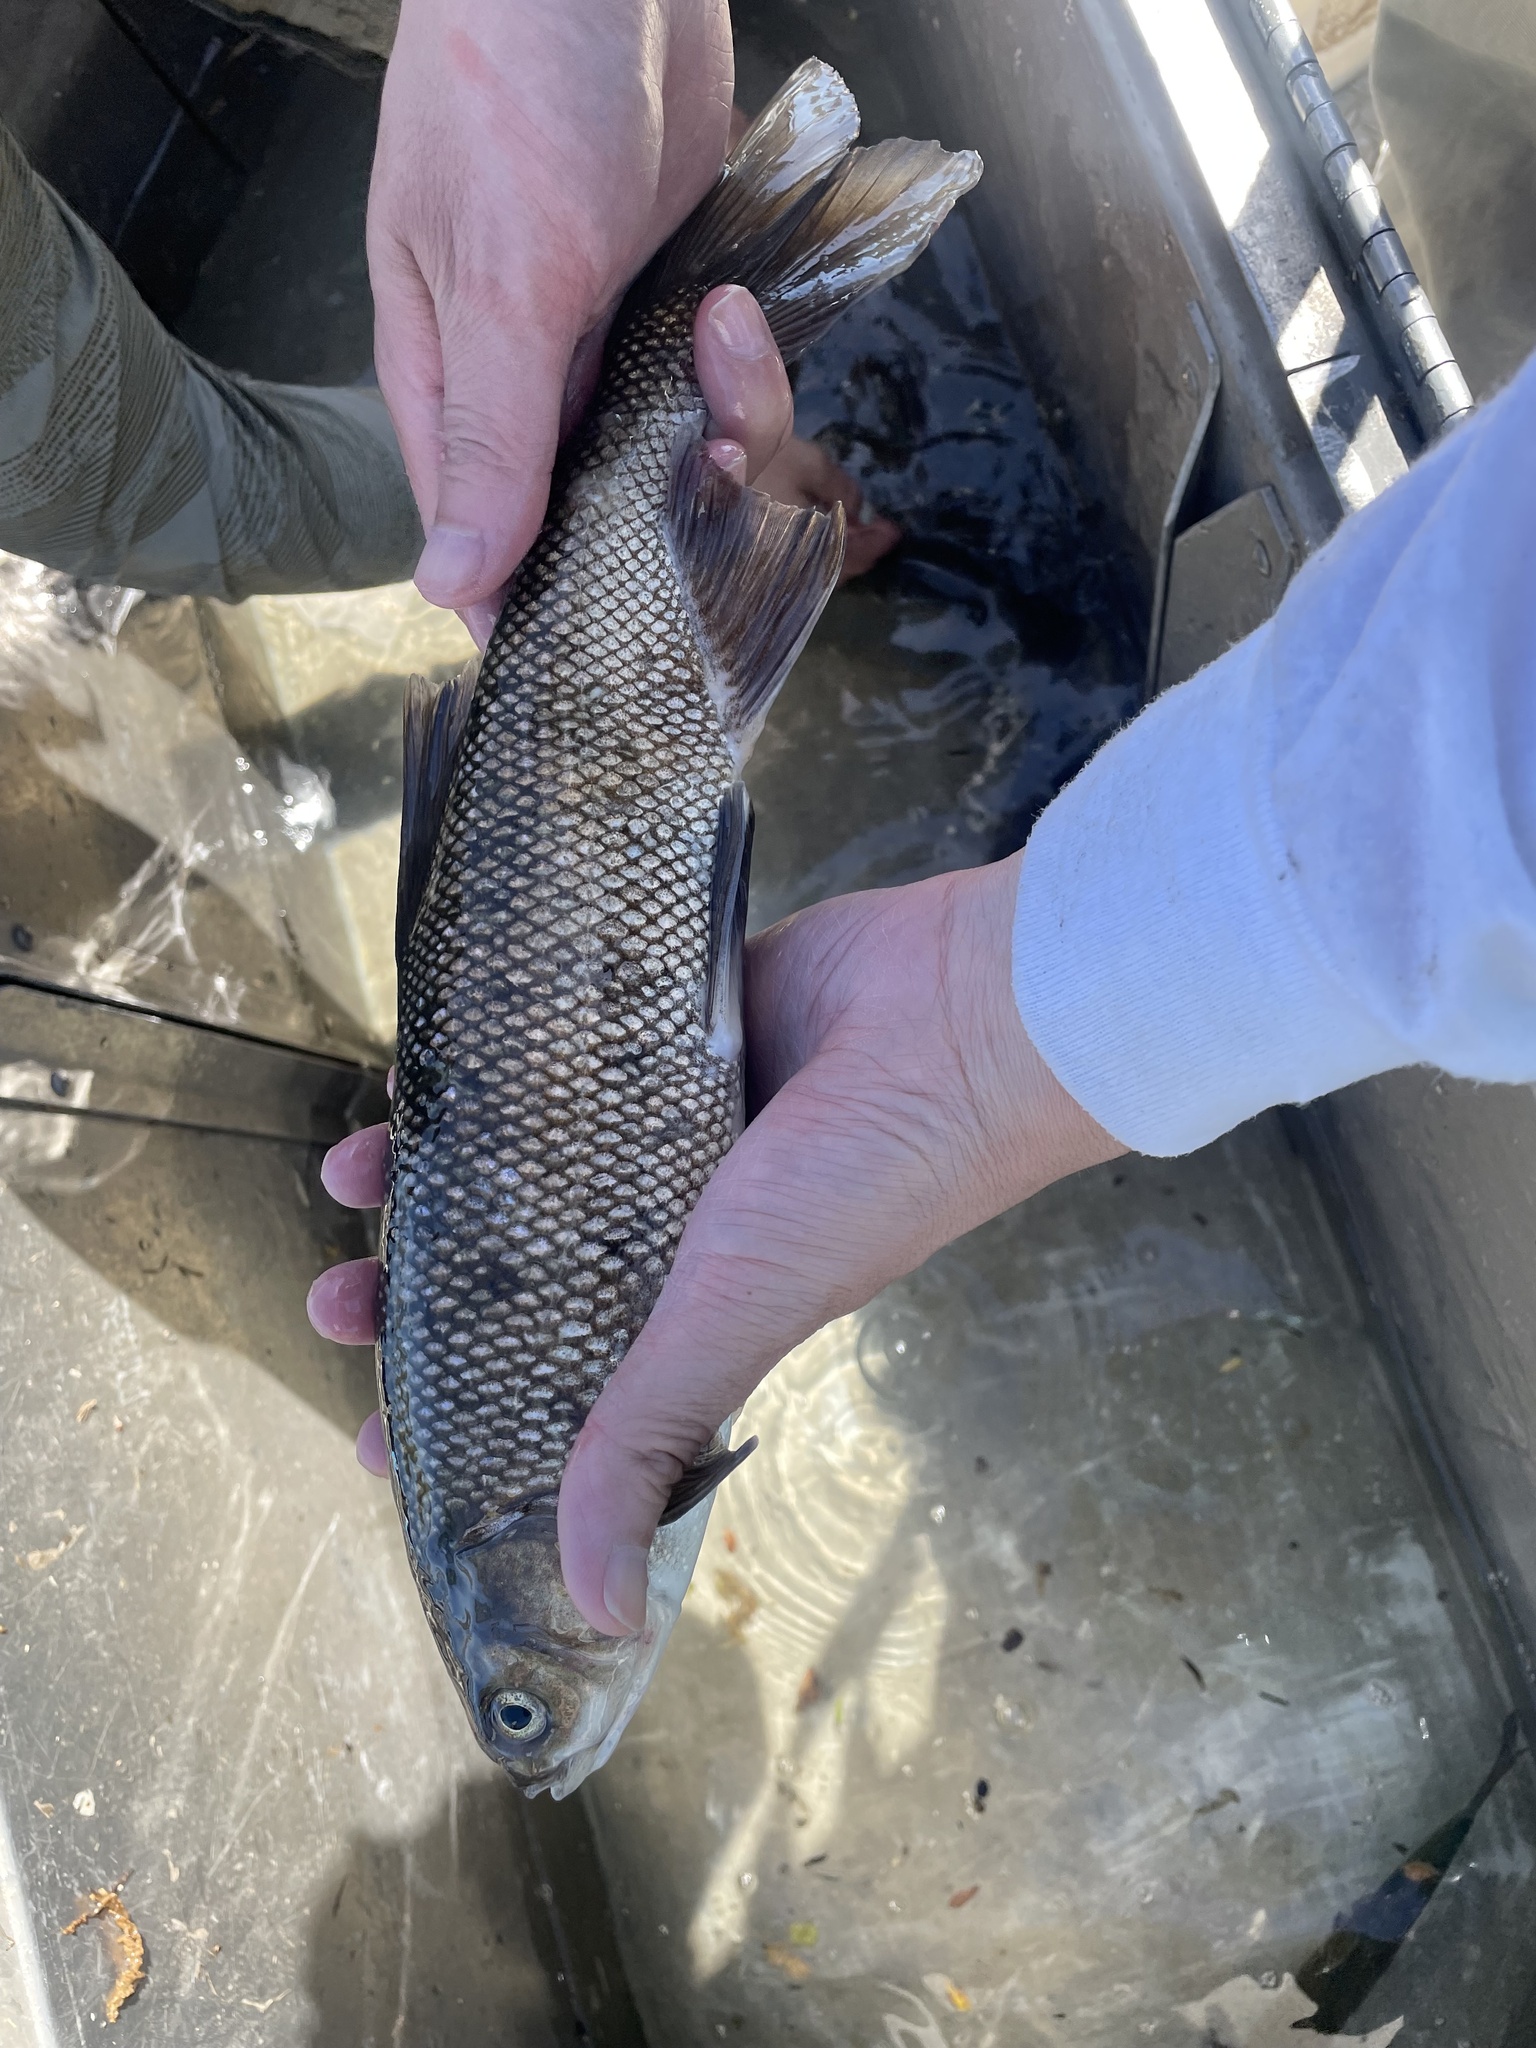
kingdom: Animalia
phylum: Chordata
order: Cypriniformes
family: Cyprinidae
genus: Lavinia
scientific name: Lavinia exilicauda
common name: Hitch
